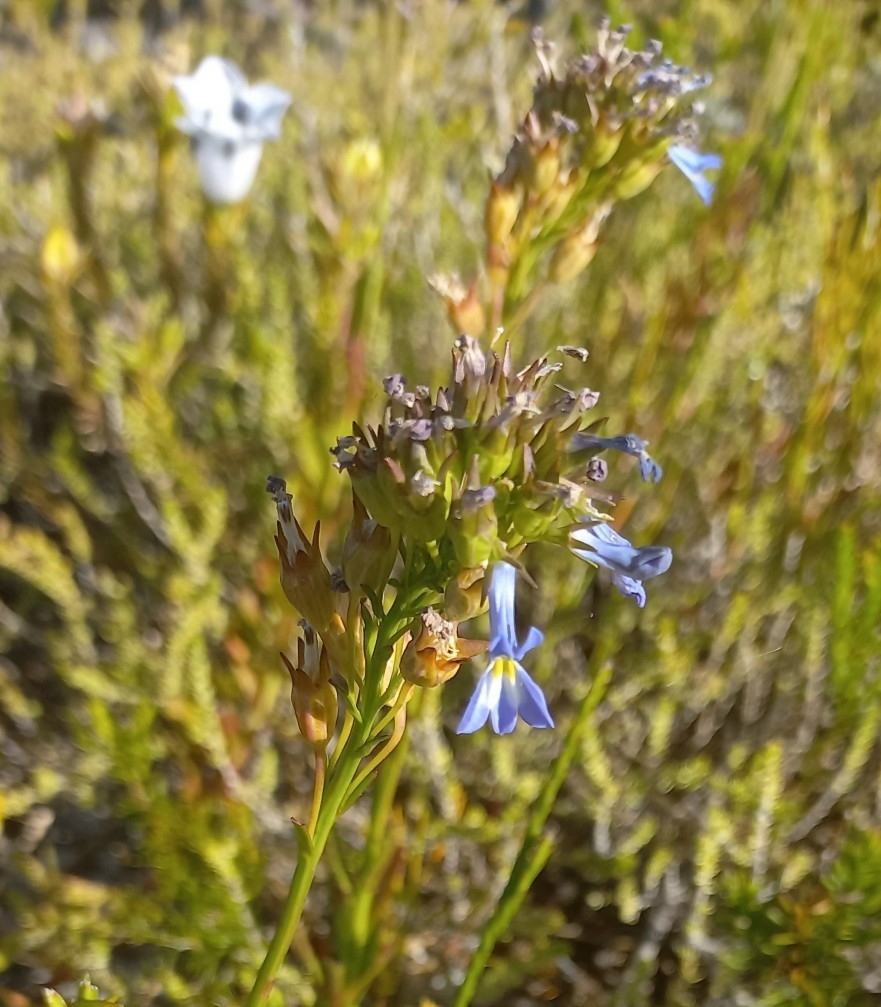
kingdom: Plantae
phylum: Tracheophyta
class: Magnoliopsida
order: Asterales
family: Campanulaceae
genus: Lobelia
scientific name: Lobelia comosa
